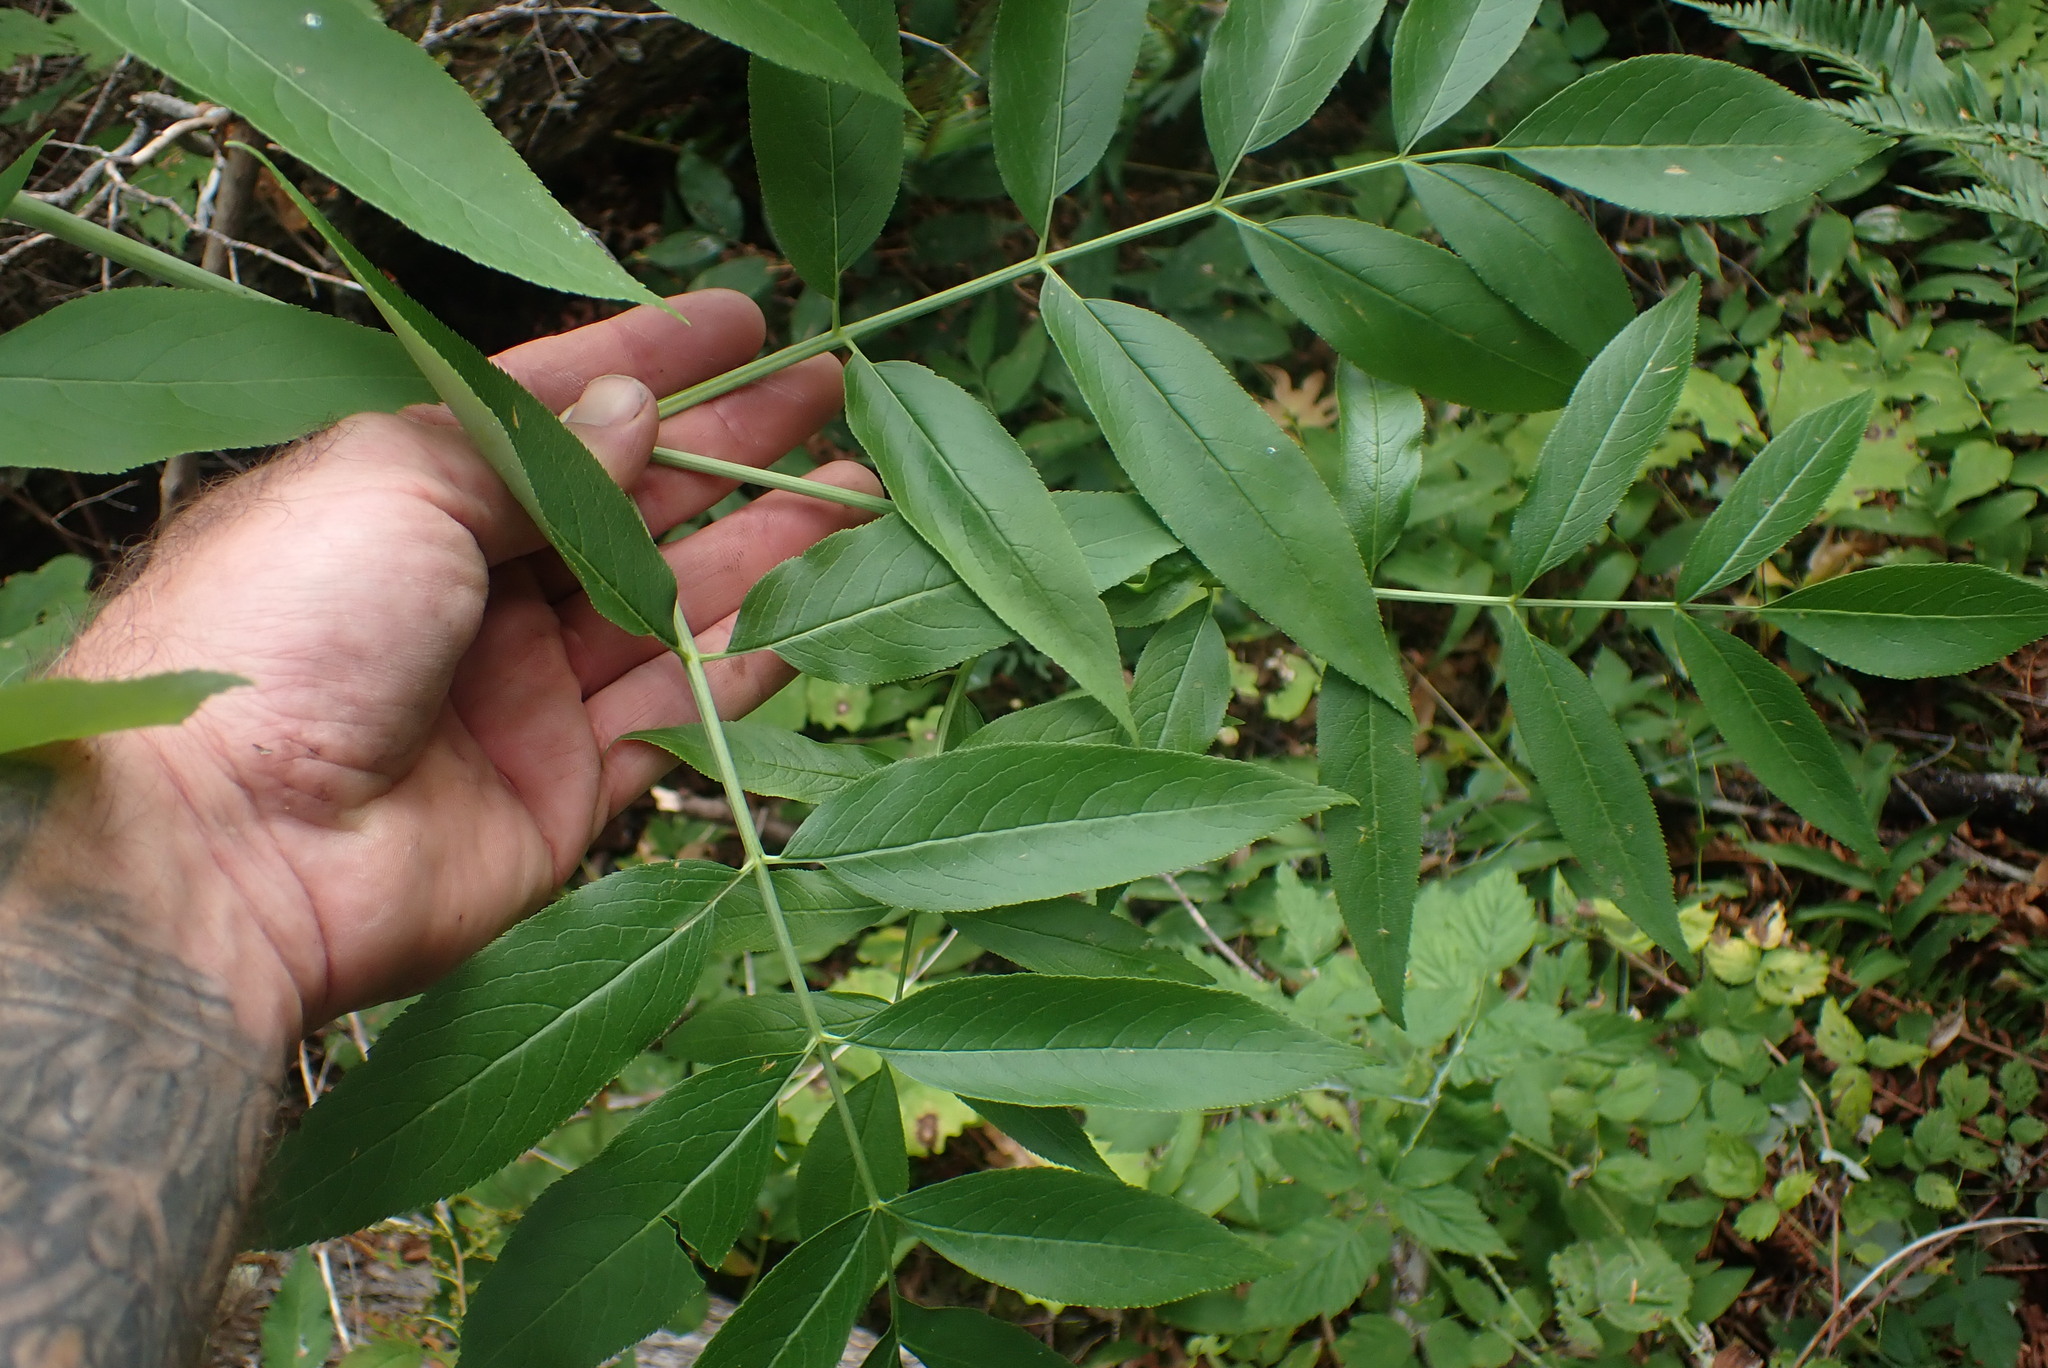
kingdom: Plantae
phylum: Tracheophyta
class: Magnoliopsida
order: Dipsacales
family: Viburnaceae
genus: Sambucus
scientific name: Sambucus cerulea
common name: Blue elder
